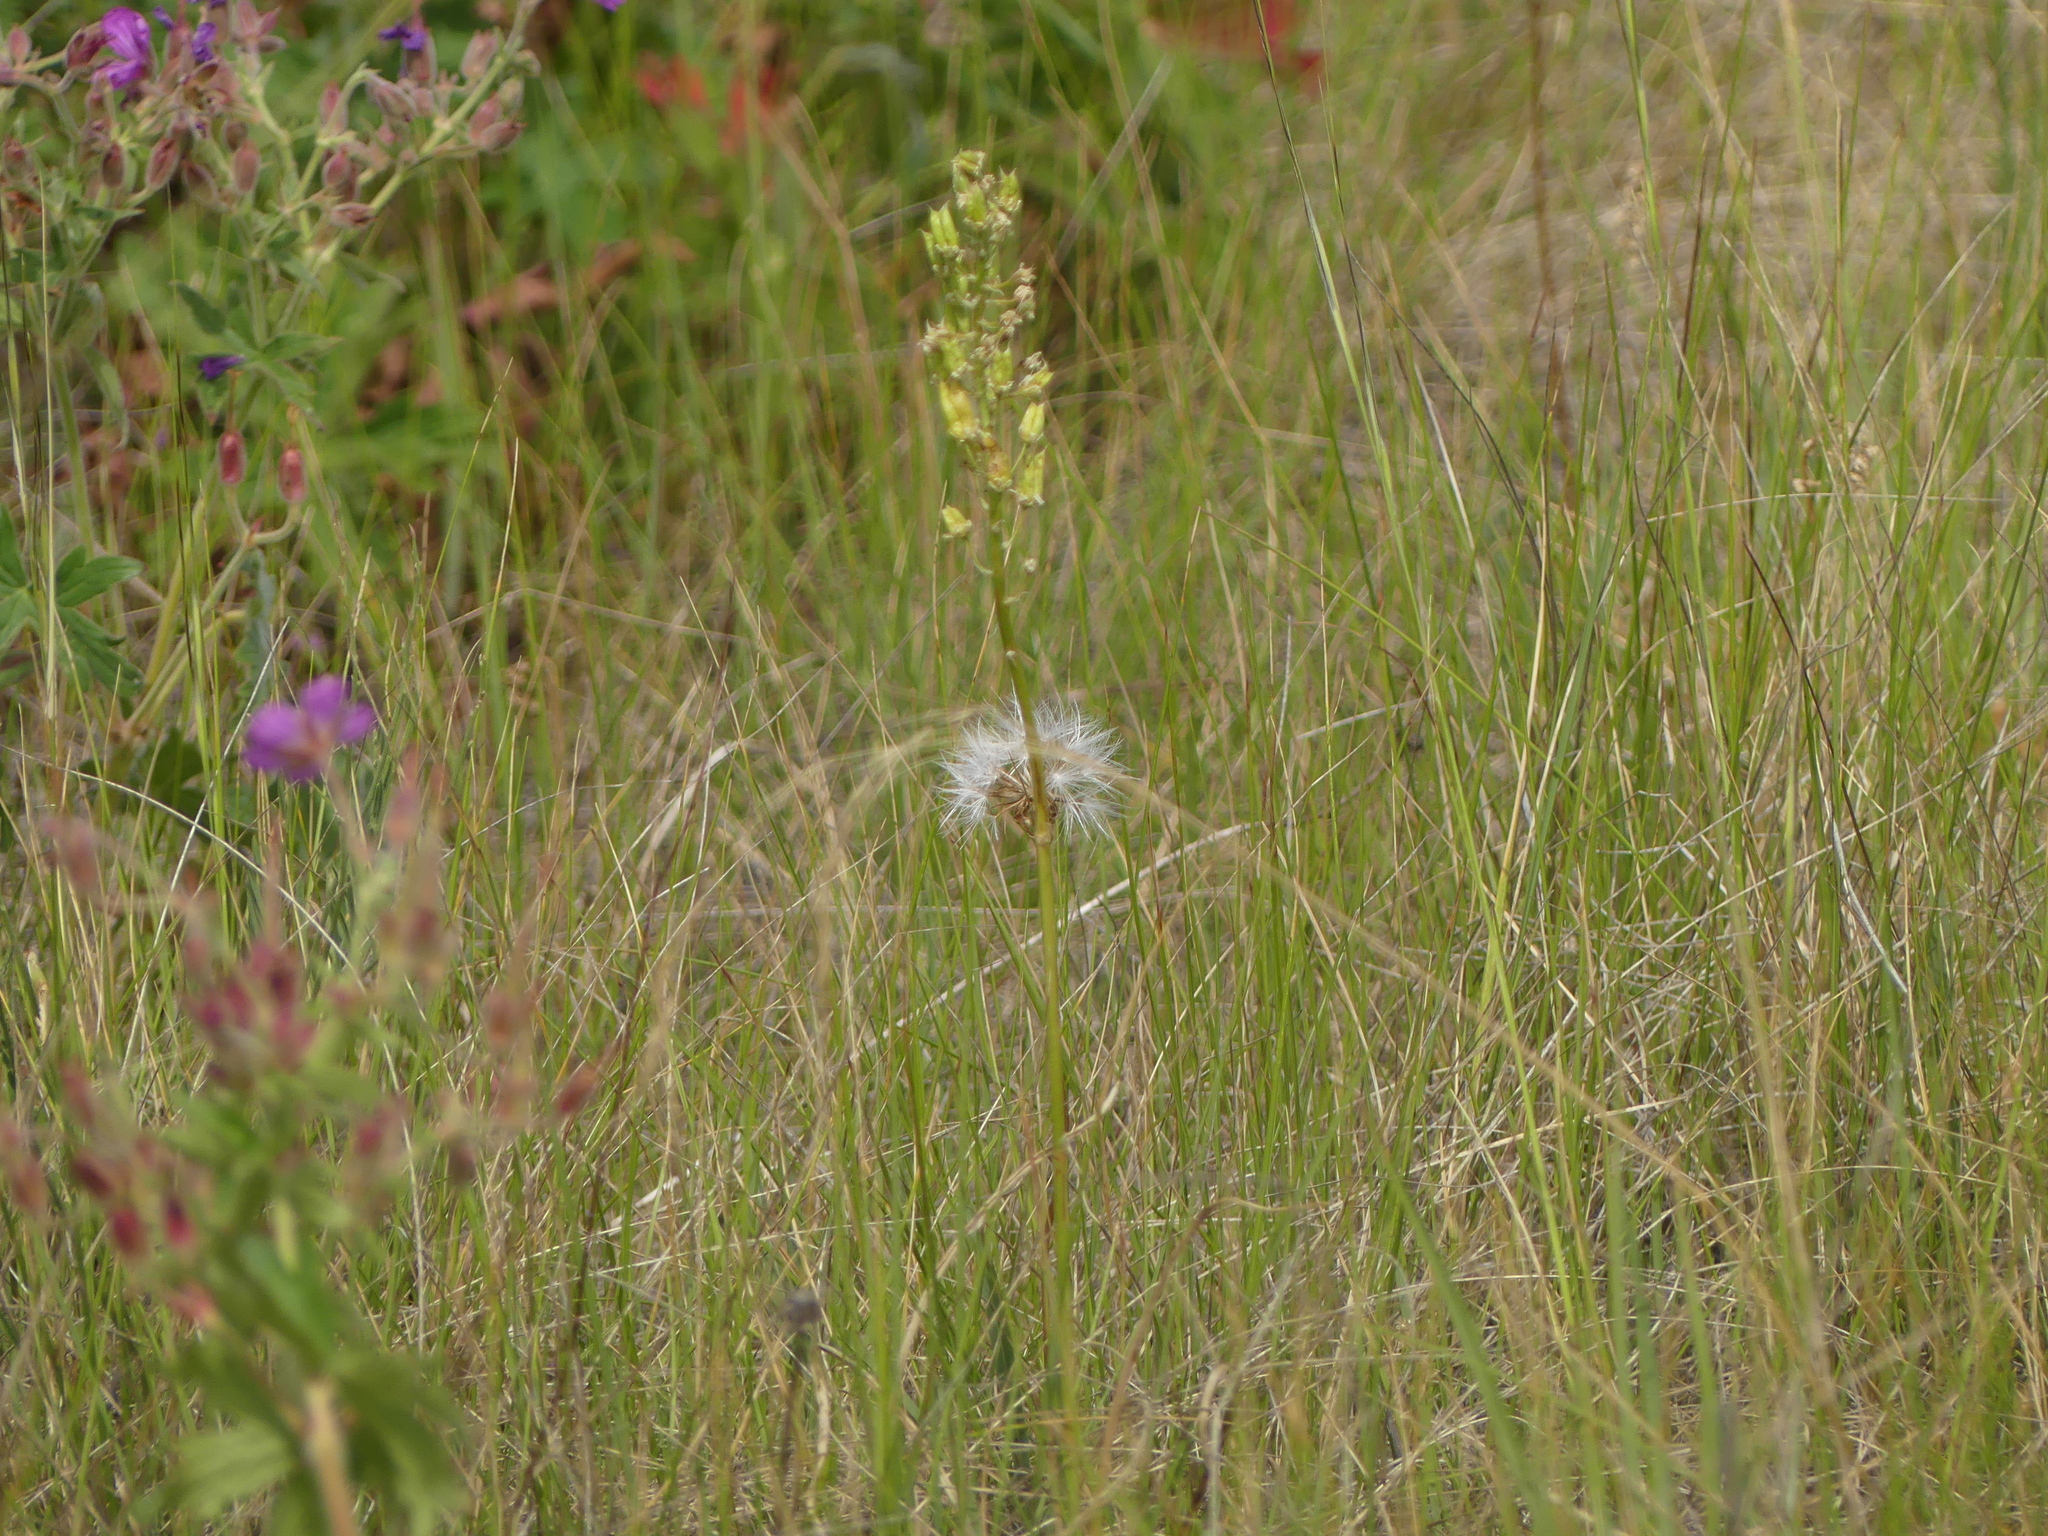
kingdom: Plantae
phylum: Tracheophyta
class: Liliopsida
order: Liliales
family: Melanthiaceae
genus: Toxicoscordion
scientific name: Toxicoscordion venenosum
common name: Meadow death camas
